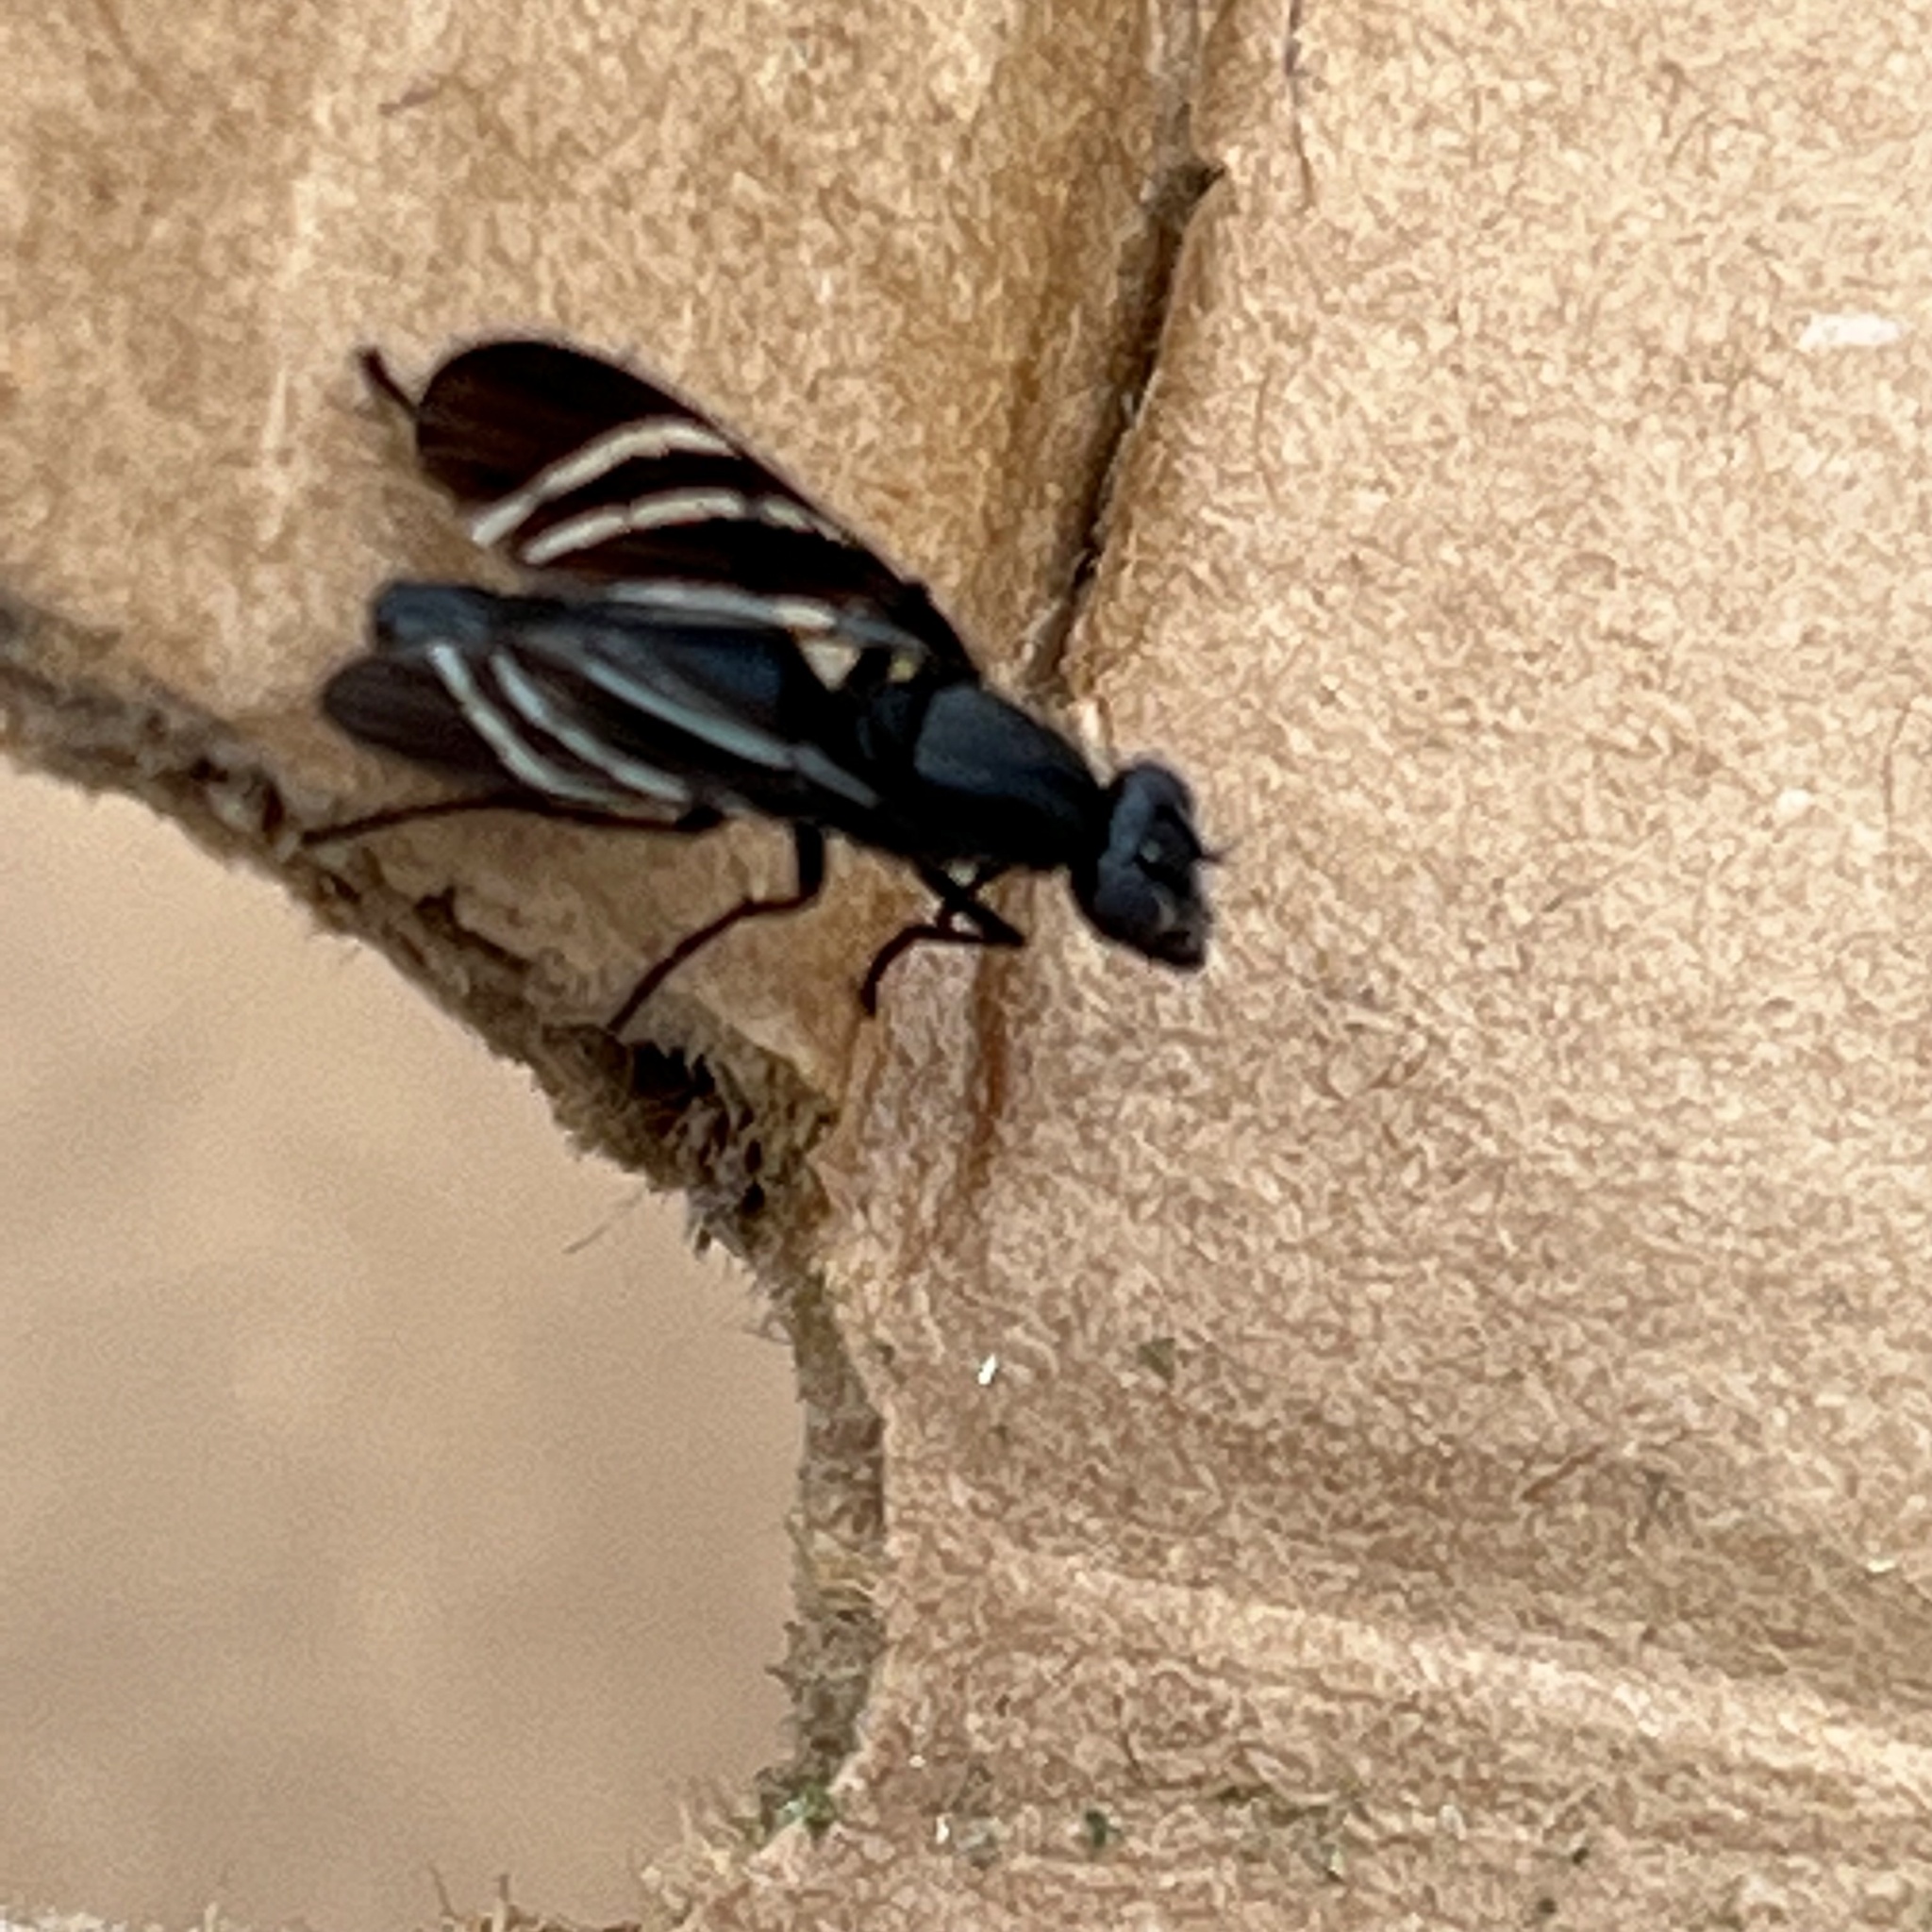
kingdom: Animalia
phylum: Arthropoda
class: Insecta
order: Diptera
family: Ulidiidae
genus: Tritoxa
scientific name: Tritoxa flexa
